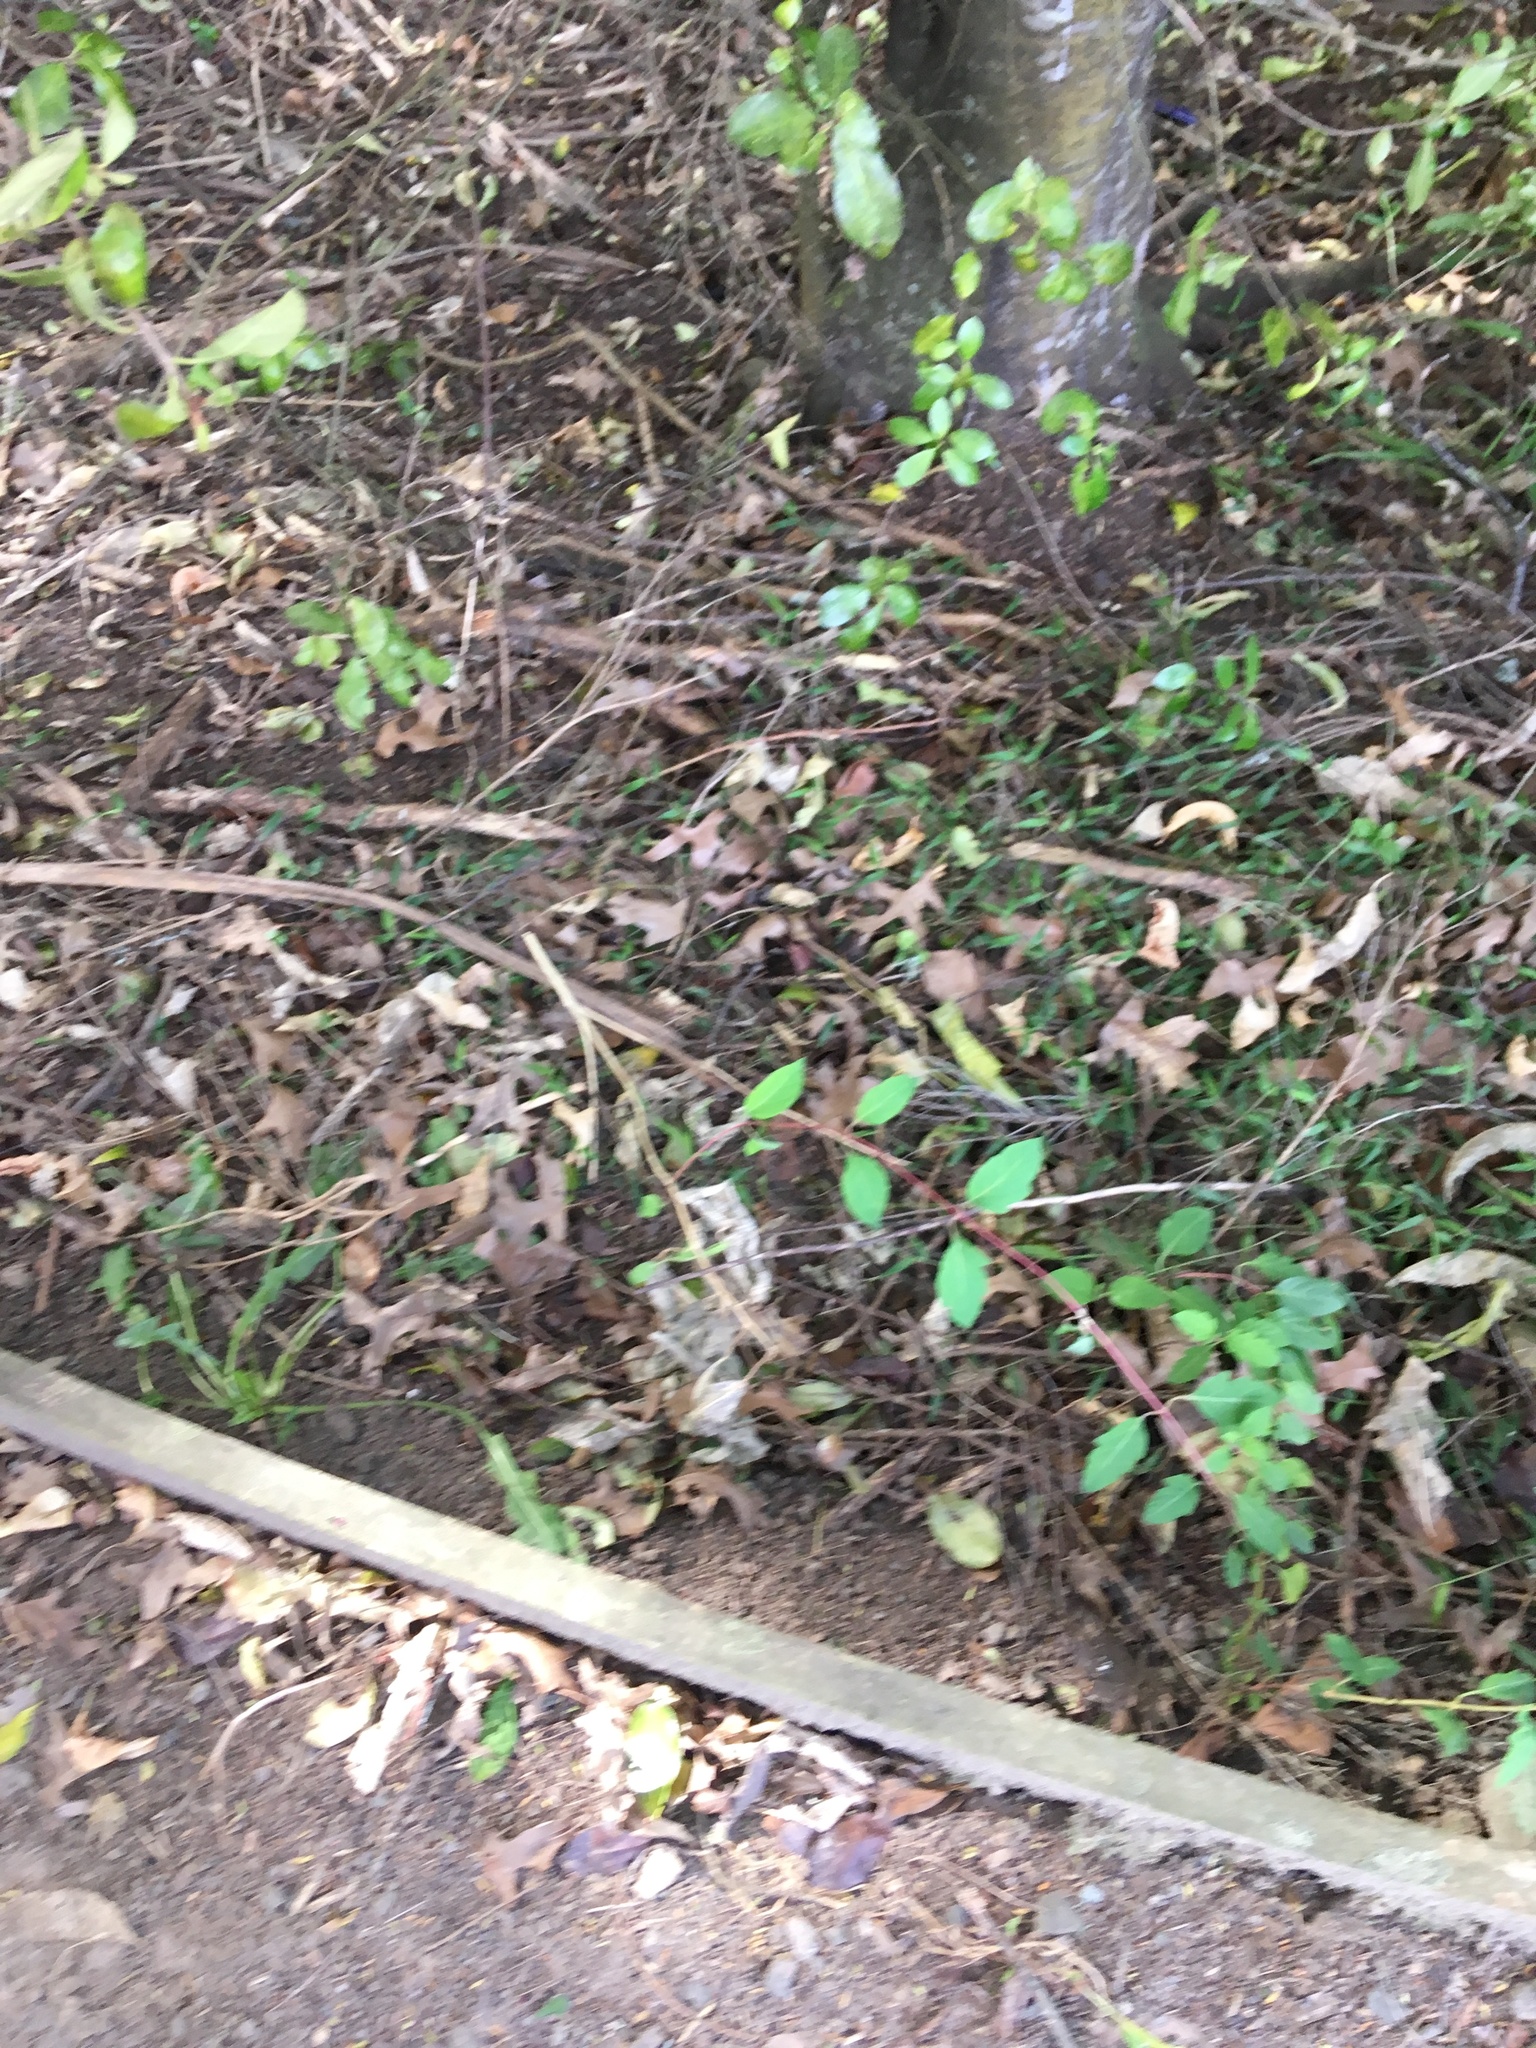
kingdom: Plantae
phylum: Tracheophyta
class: Magnoliopsida
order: Dipsacales
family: Caprifoliaceae
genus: Lonicera
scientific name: Lonicera japonica
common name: Japanese honeysuckle
